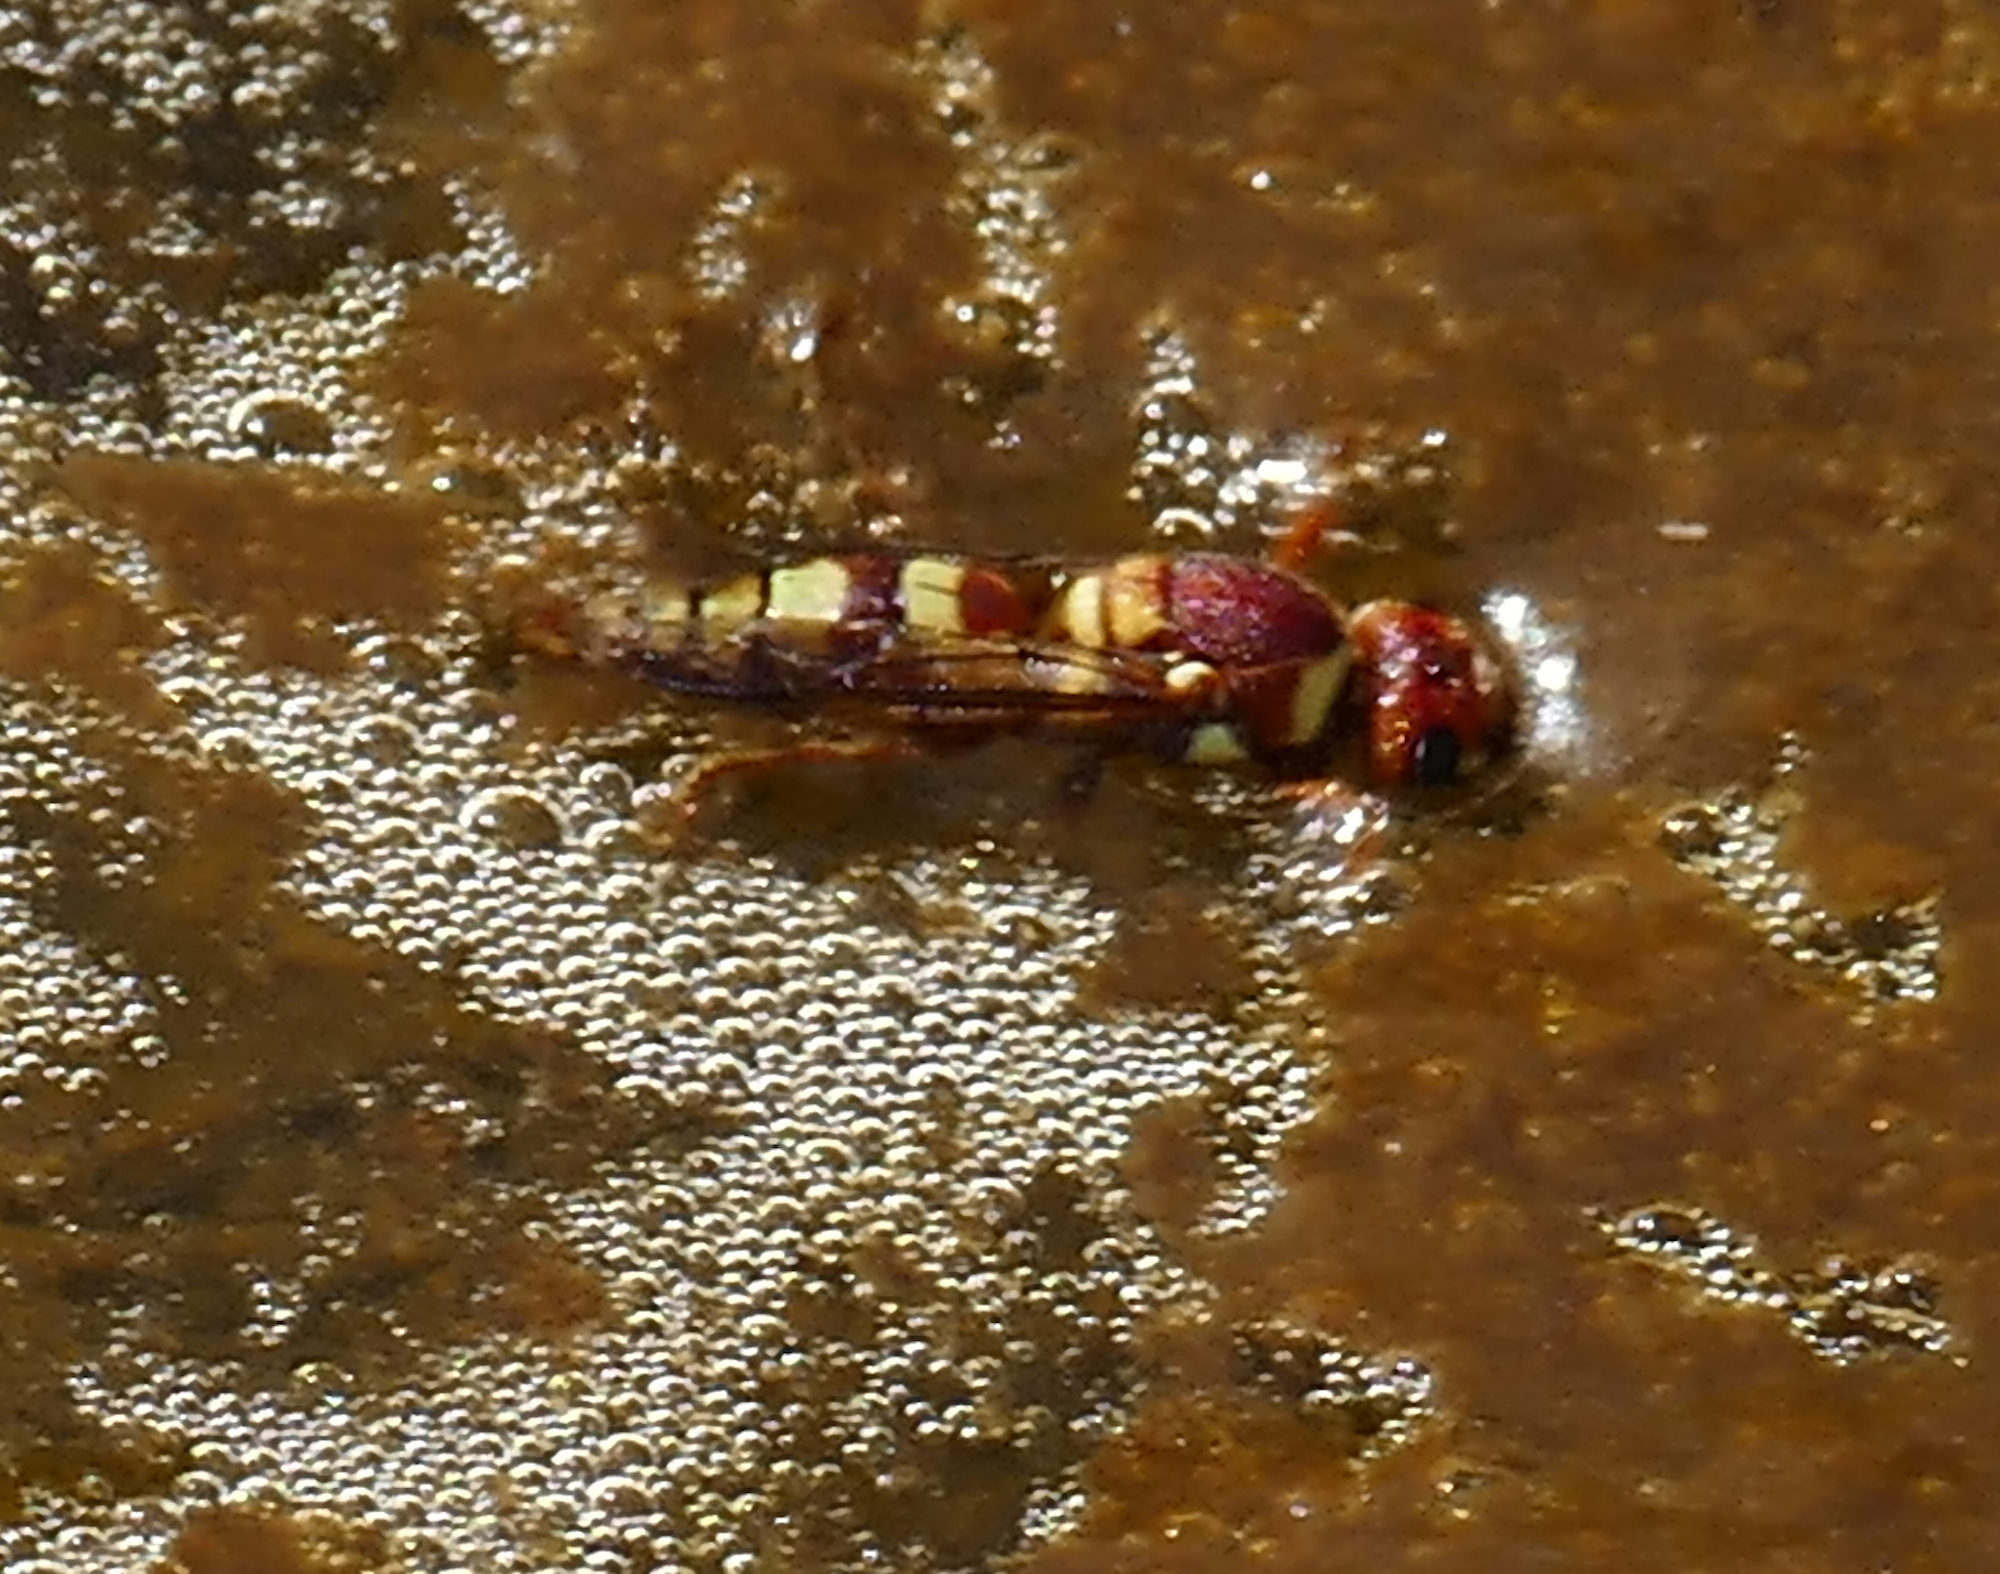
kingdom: Animalia
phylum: Arthropoda
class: Insecta
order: Hymenoptera
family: Eumenidae
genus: Euodynerus
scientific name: Euodynerus annulatus
